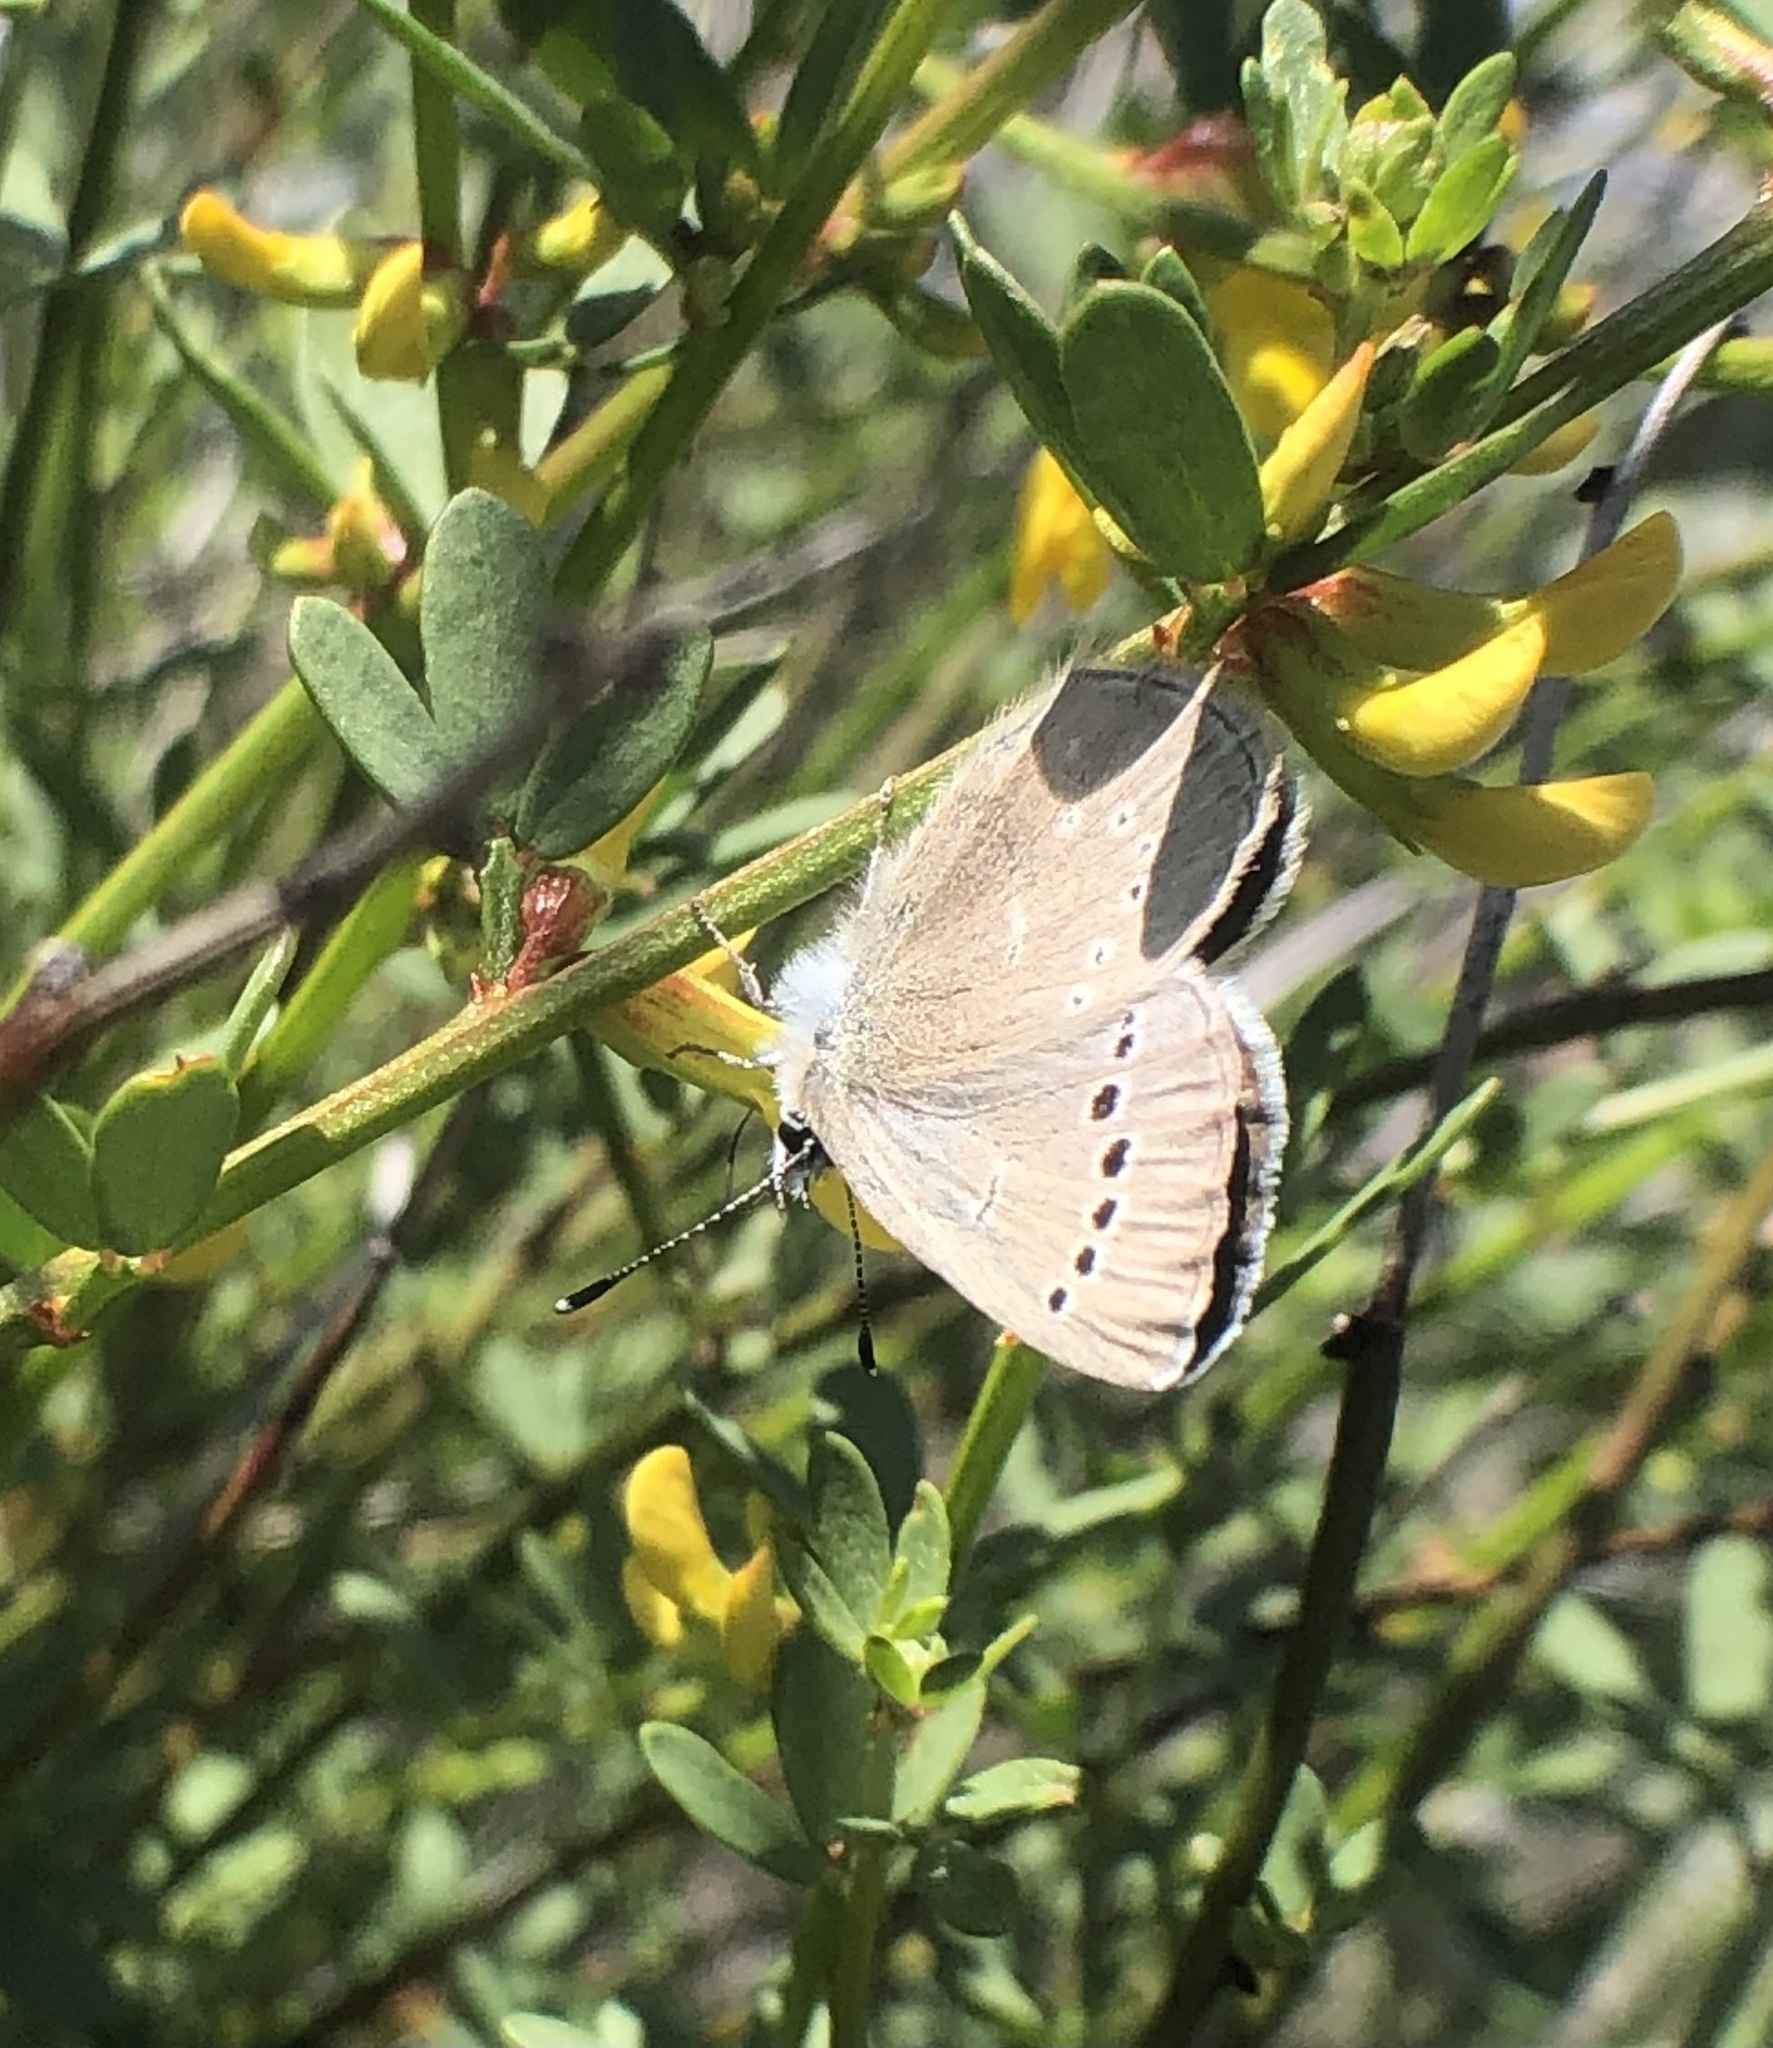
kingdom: Animalia
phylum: Arthropoda
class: Insecta
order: Lepidoptera
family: Lycaenidae
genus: Glaucopsyche
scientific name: Glaucopsyche lygdamus
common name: Silvery blue
